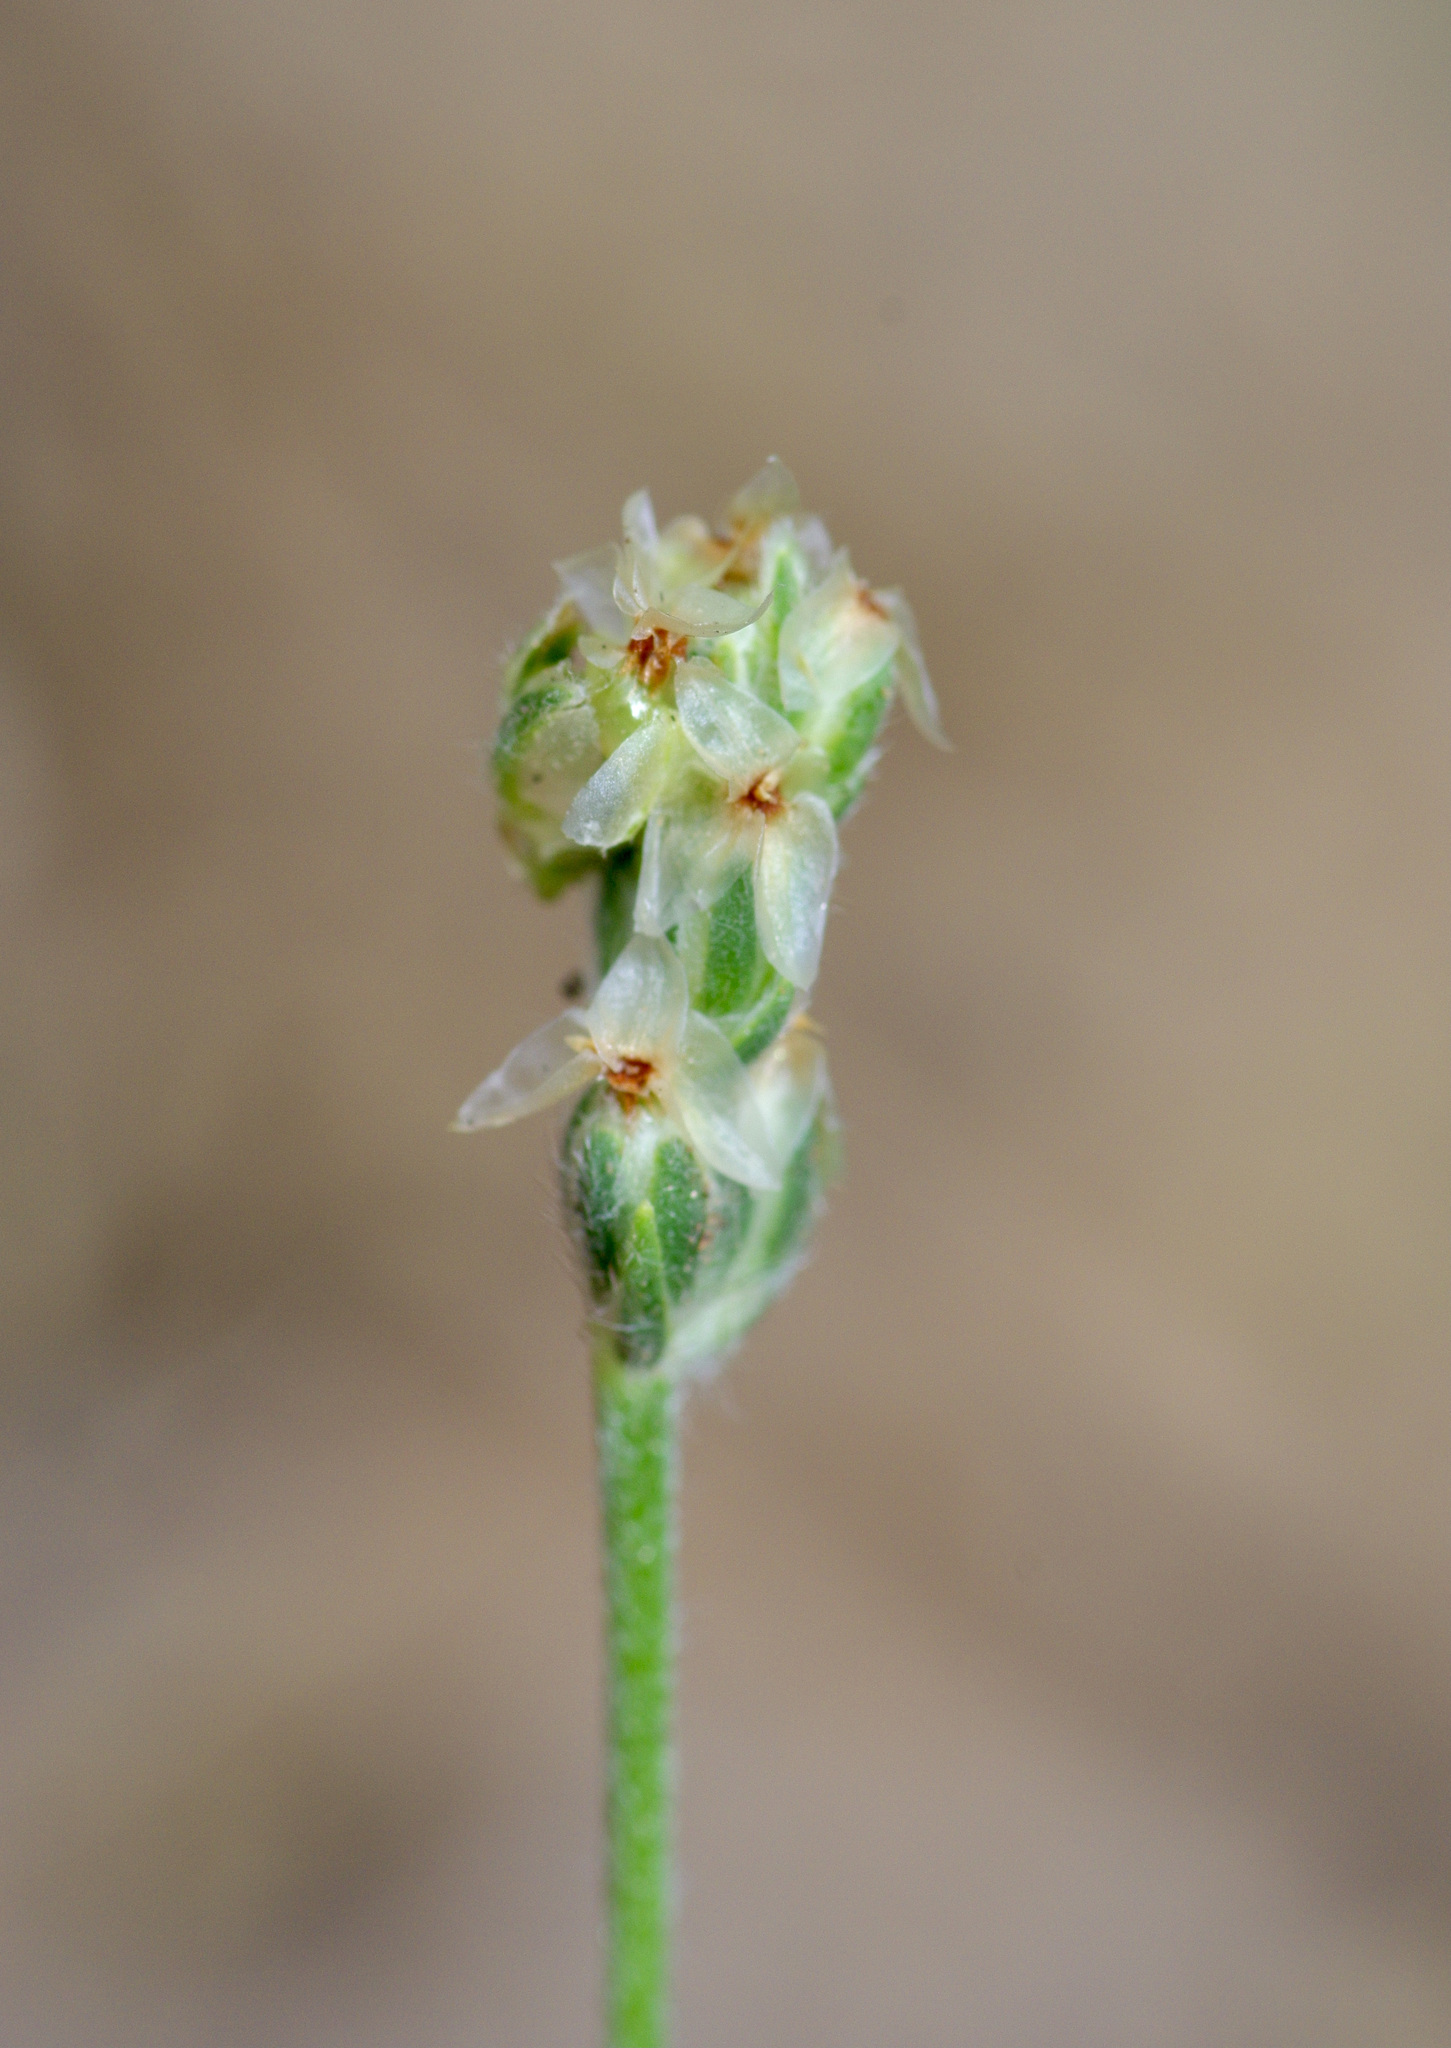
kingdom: Plantae
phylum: Tracheophyta
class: Magnoliopsida
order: Lamiales
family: Plantaginaceae
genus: Plantago
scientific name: Plantago helleri
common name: Heller's plantain
